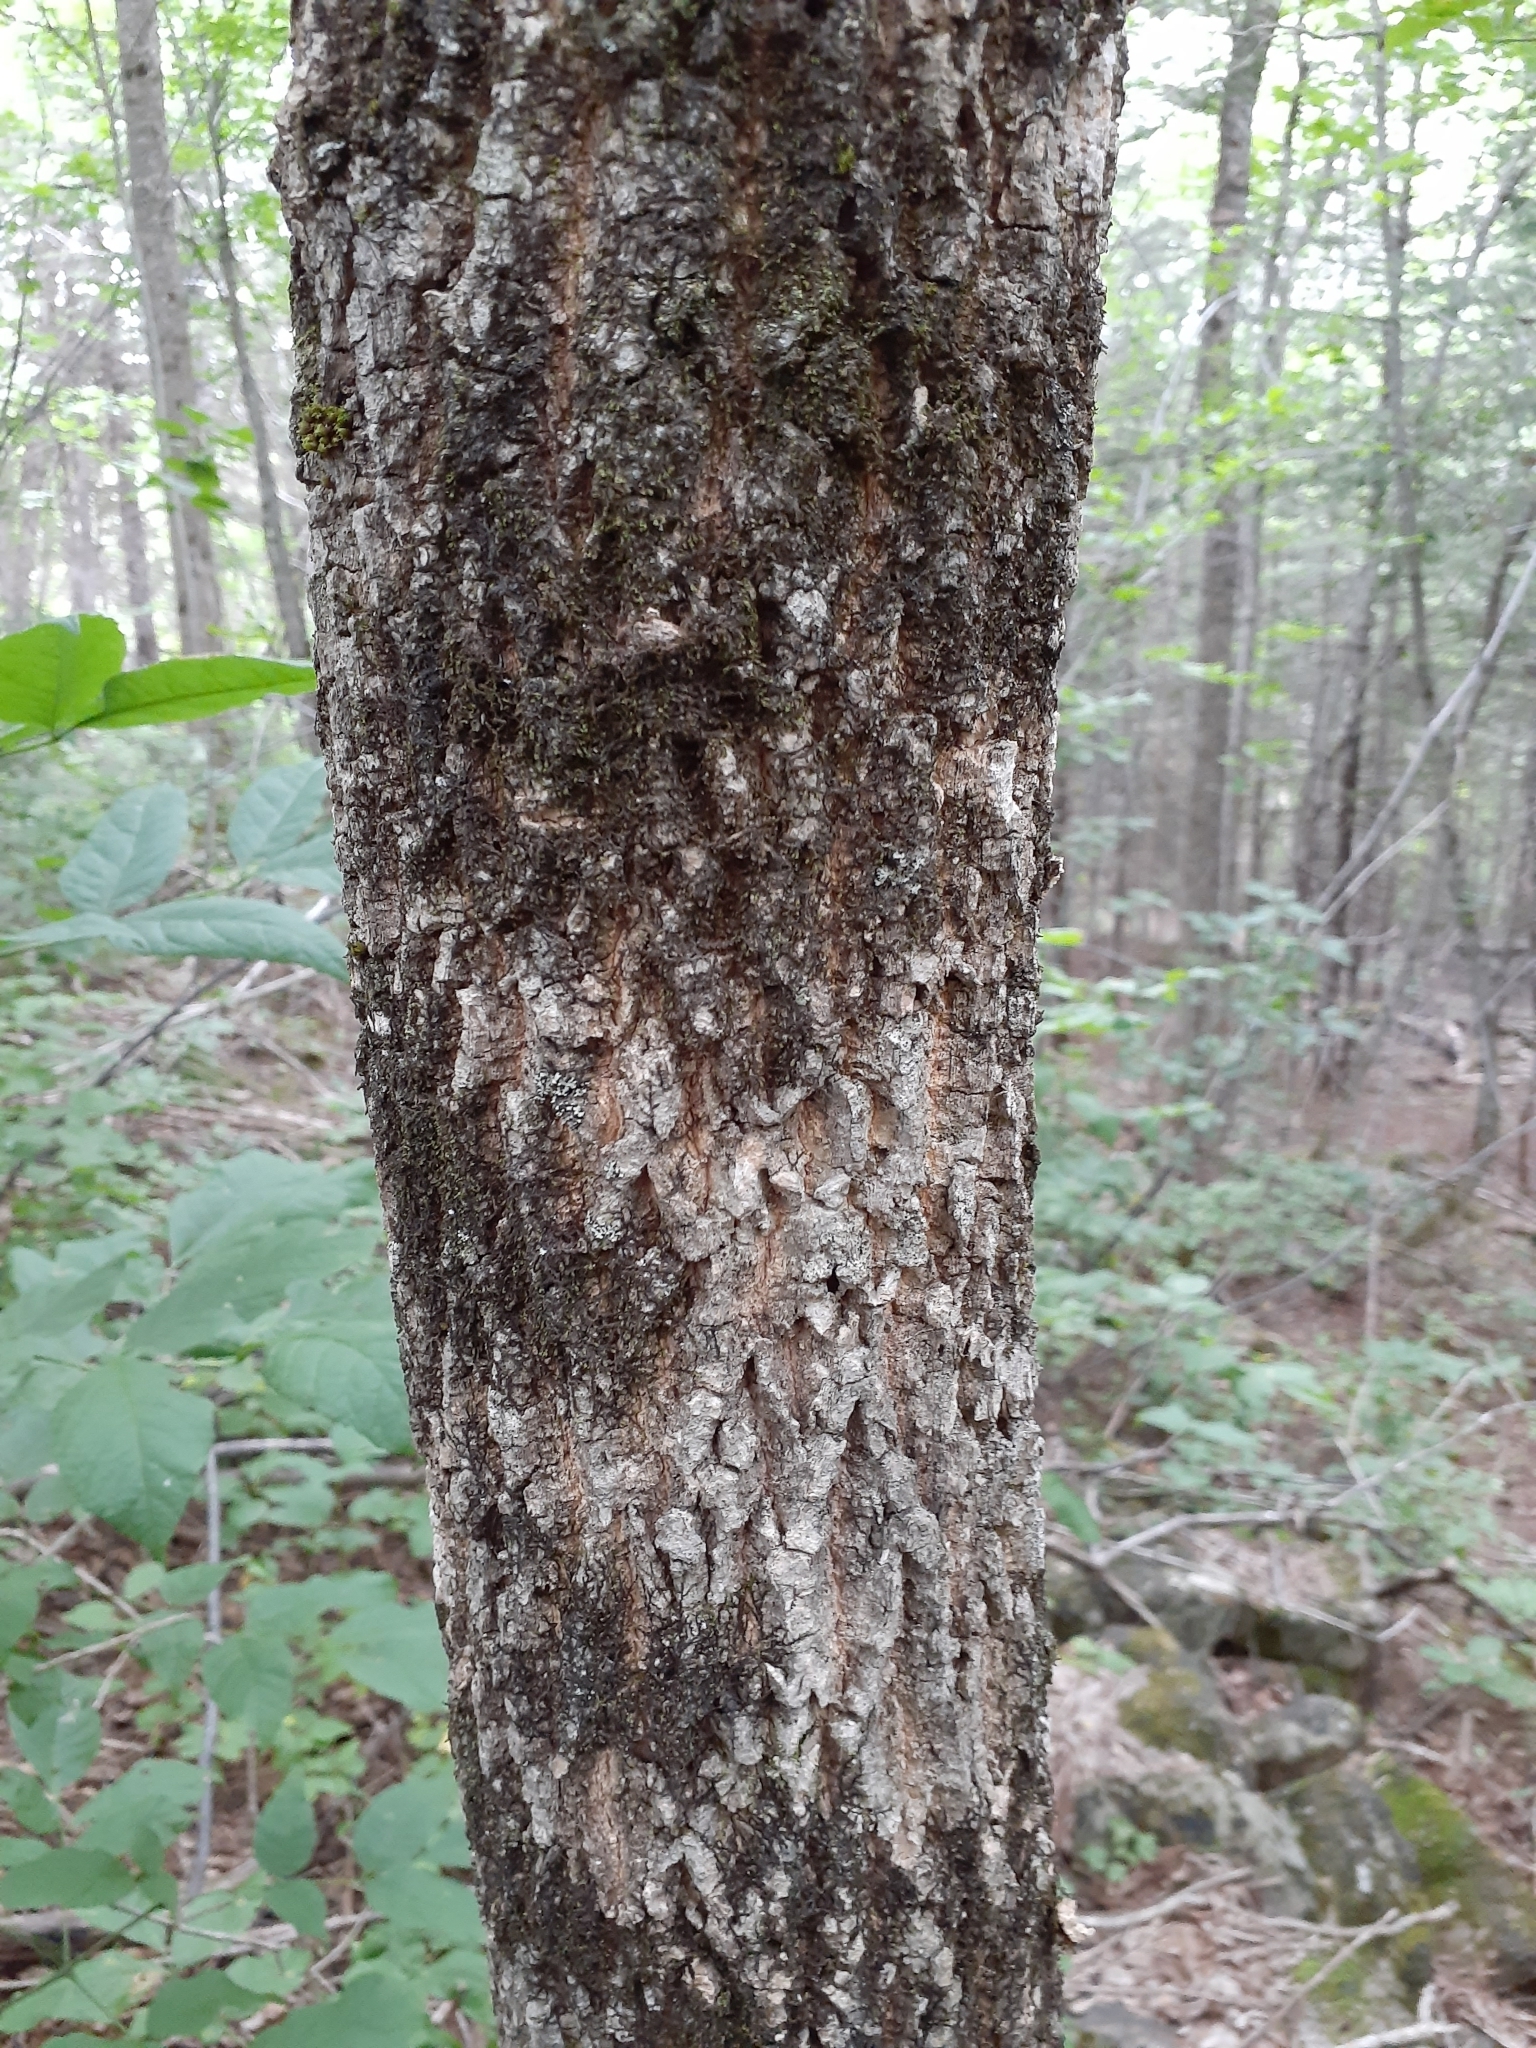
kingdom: Plantae
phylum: Tracheophyta
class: Magnoliopsida
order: Lamiales
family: Oleaceae
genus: Fraxinus
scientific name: Fraxinus nigra
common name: Black ash
